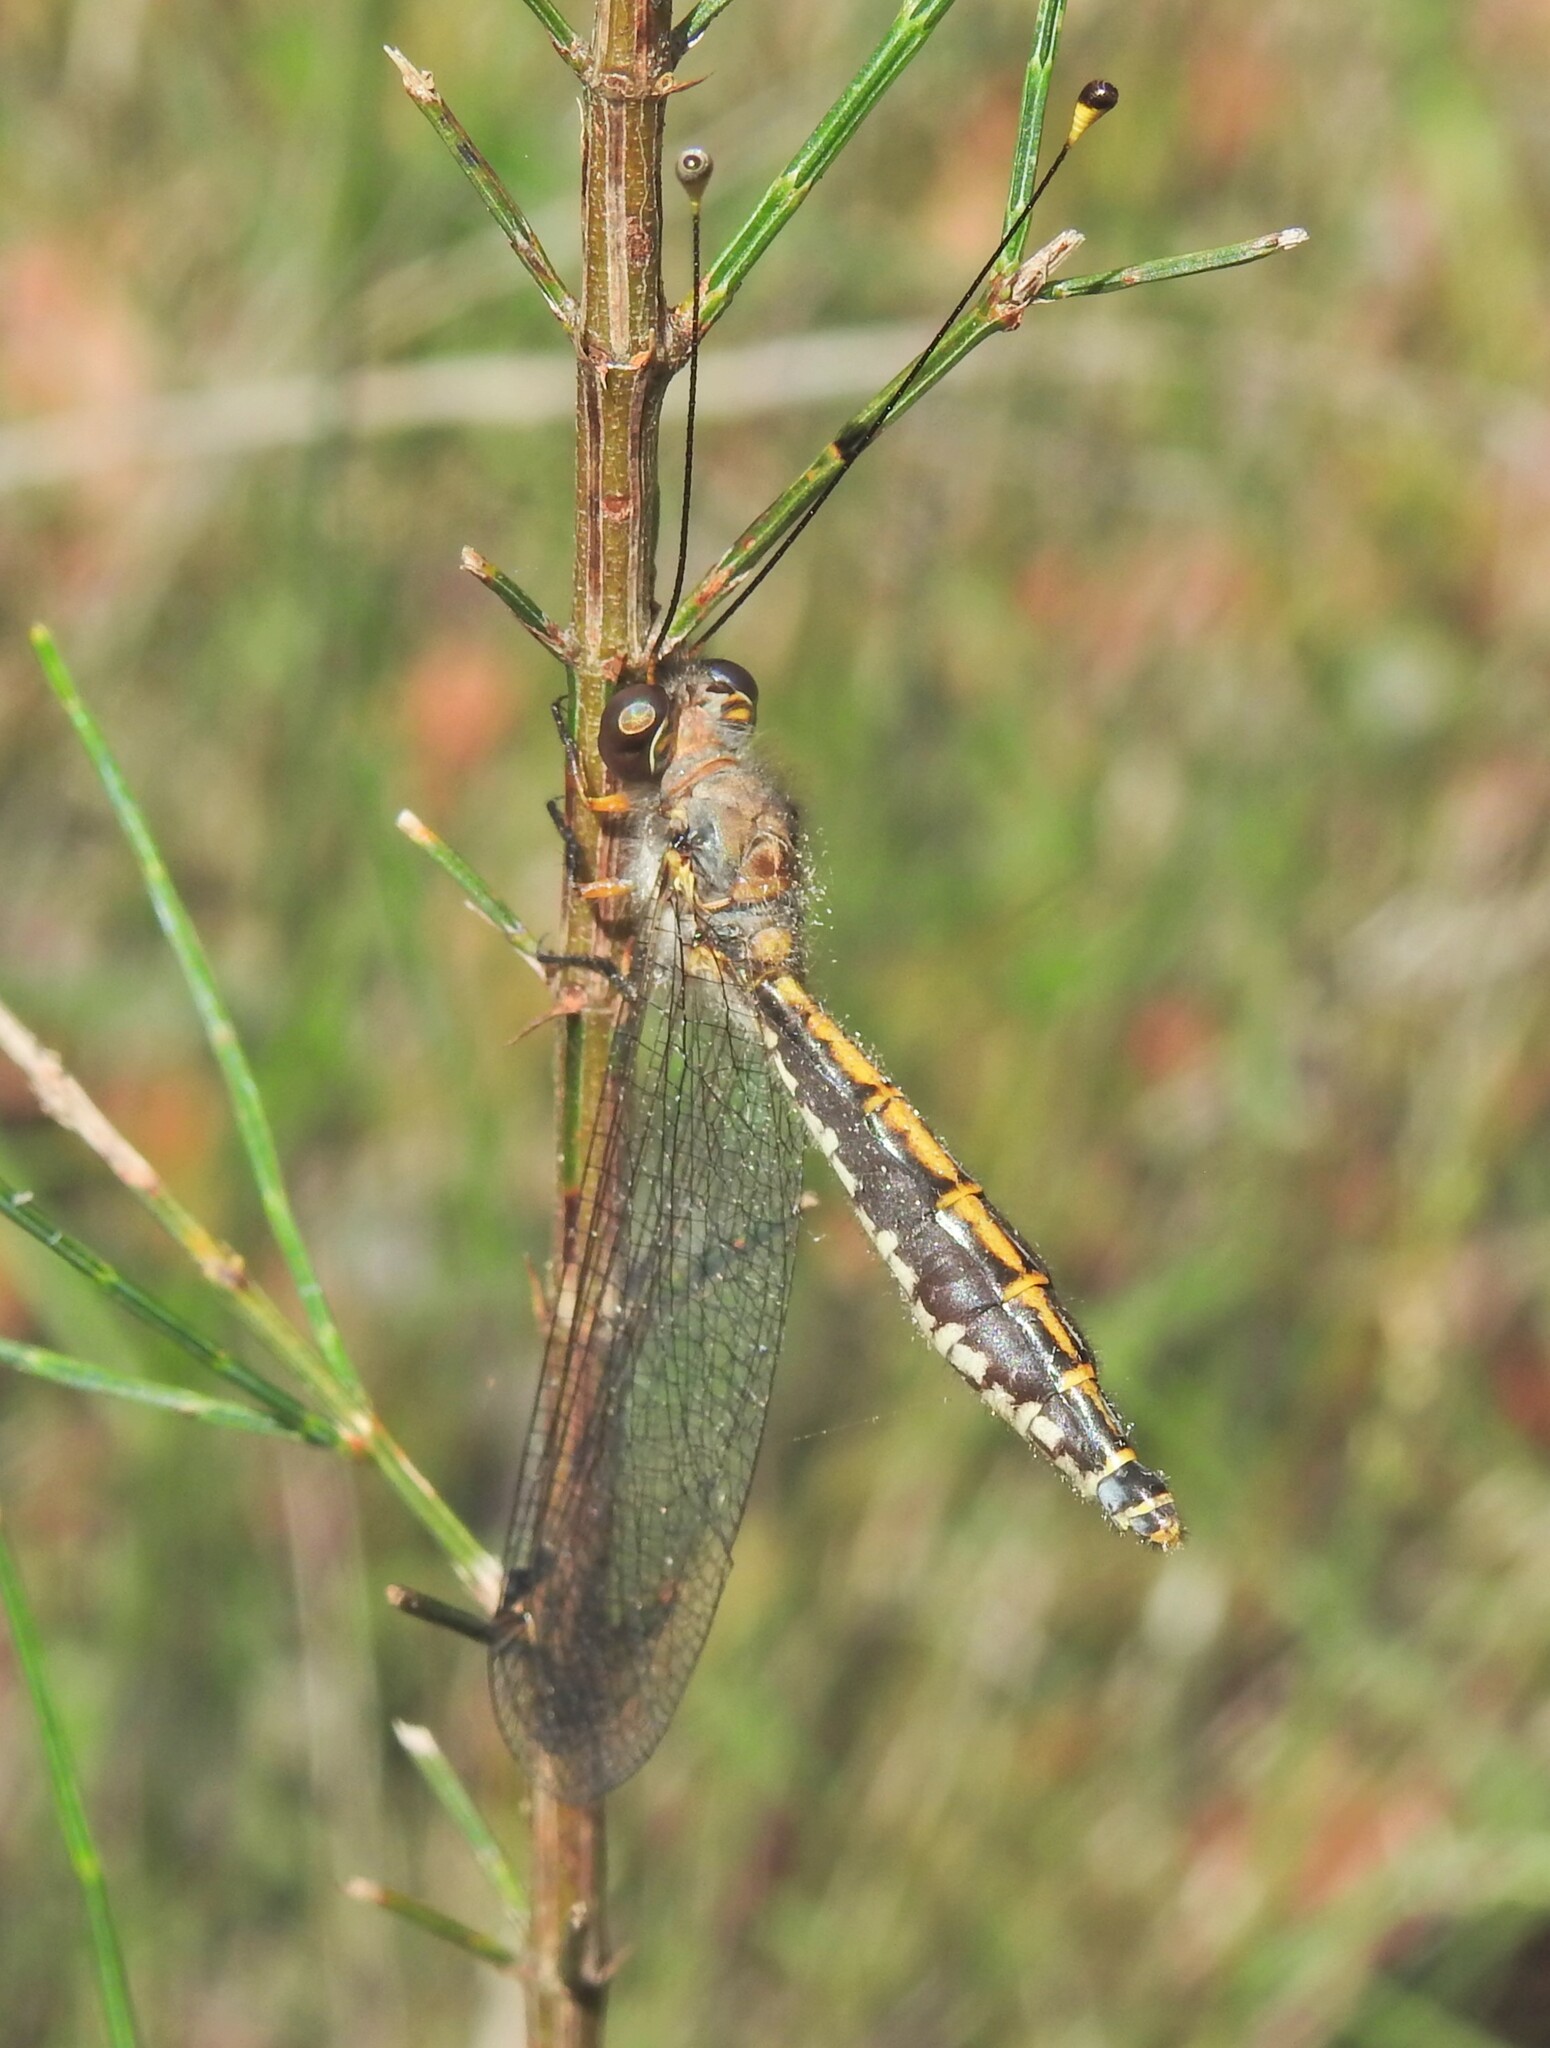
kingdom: Animalia
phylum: Arthropoda
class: Insecta
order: Neuroptera
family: Ascalaphidae
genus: Suhpalacsa
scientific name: Suhpalacsa subtrahens
